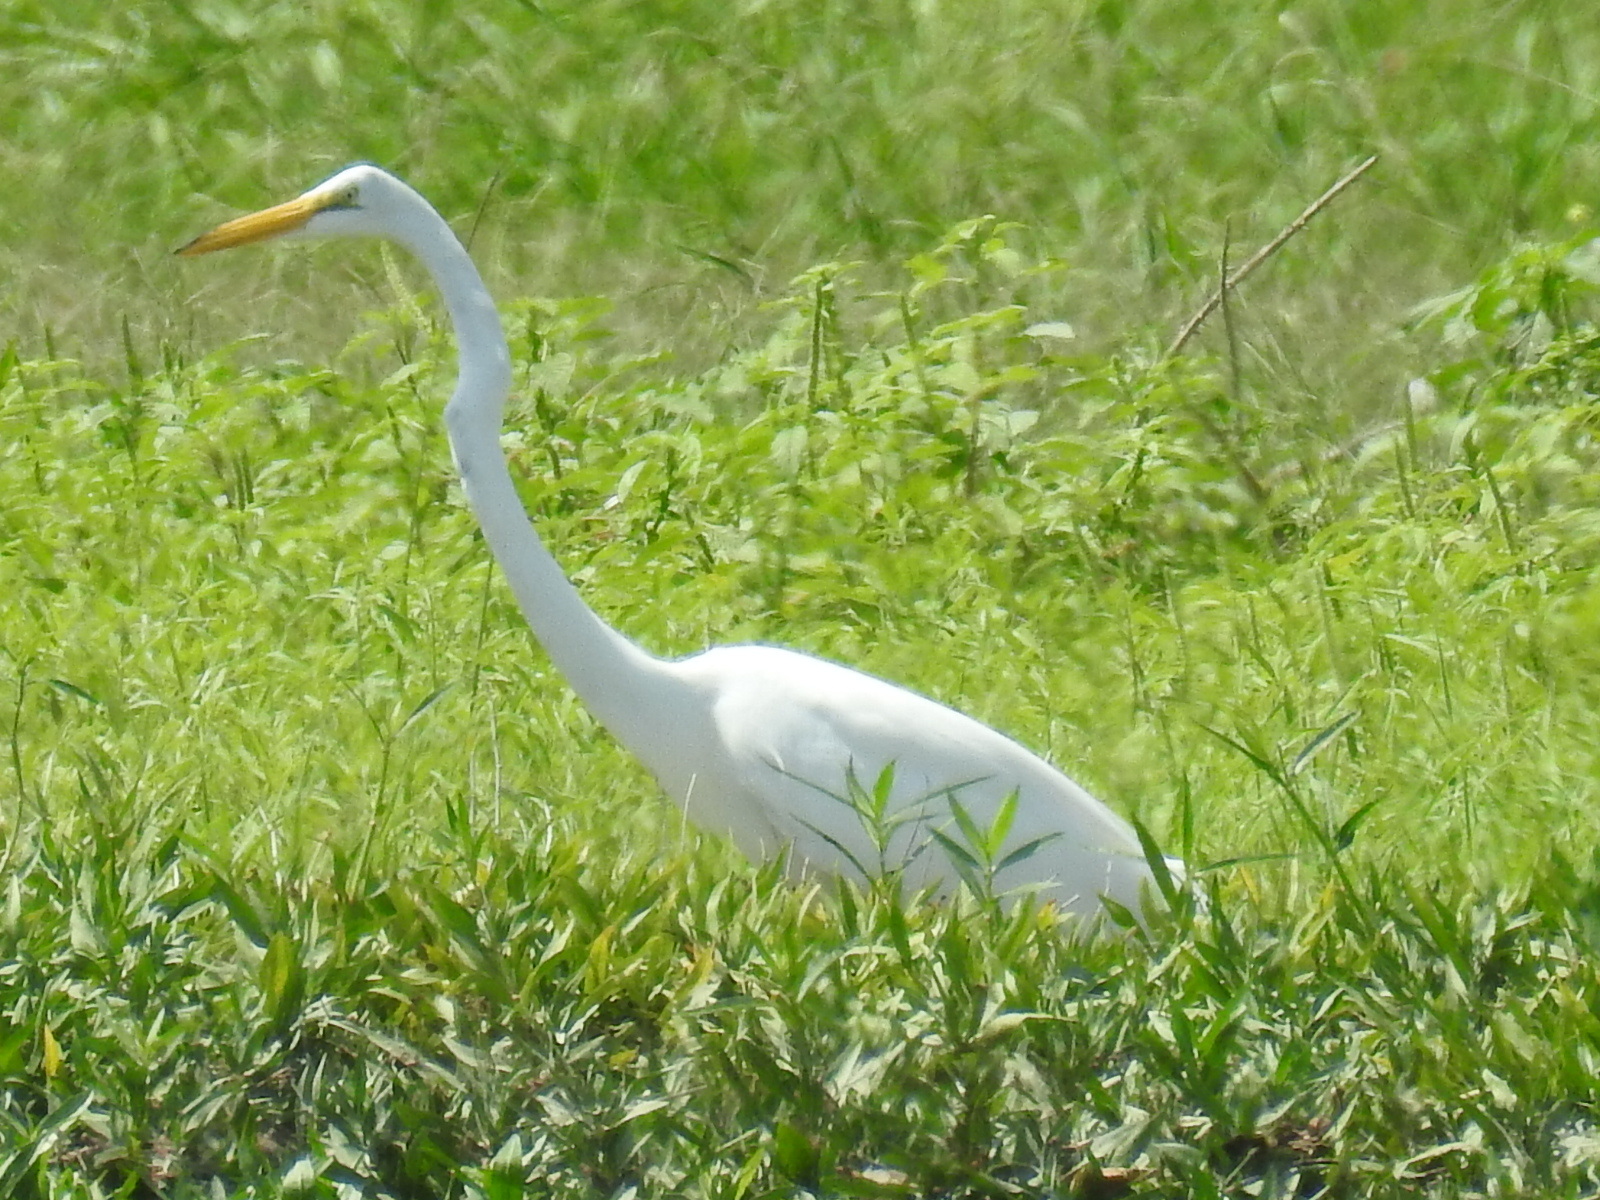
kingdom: Animalia
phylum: Chordata
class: Aves
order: Pelecaniformes
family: Ardeidae
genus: Ardea
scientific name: Ardea alba
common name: Great egret
